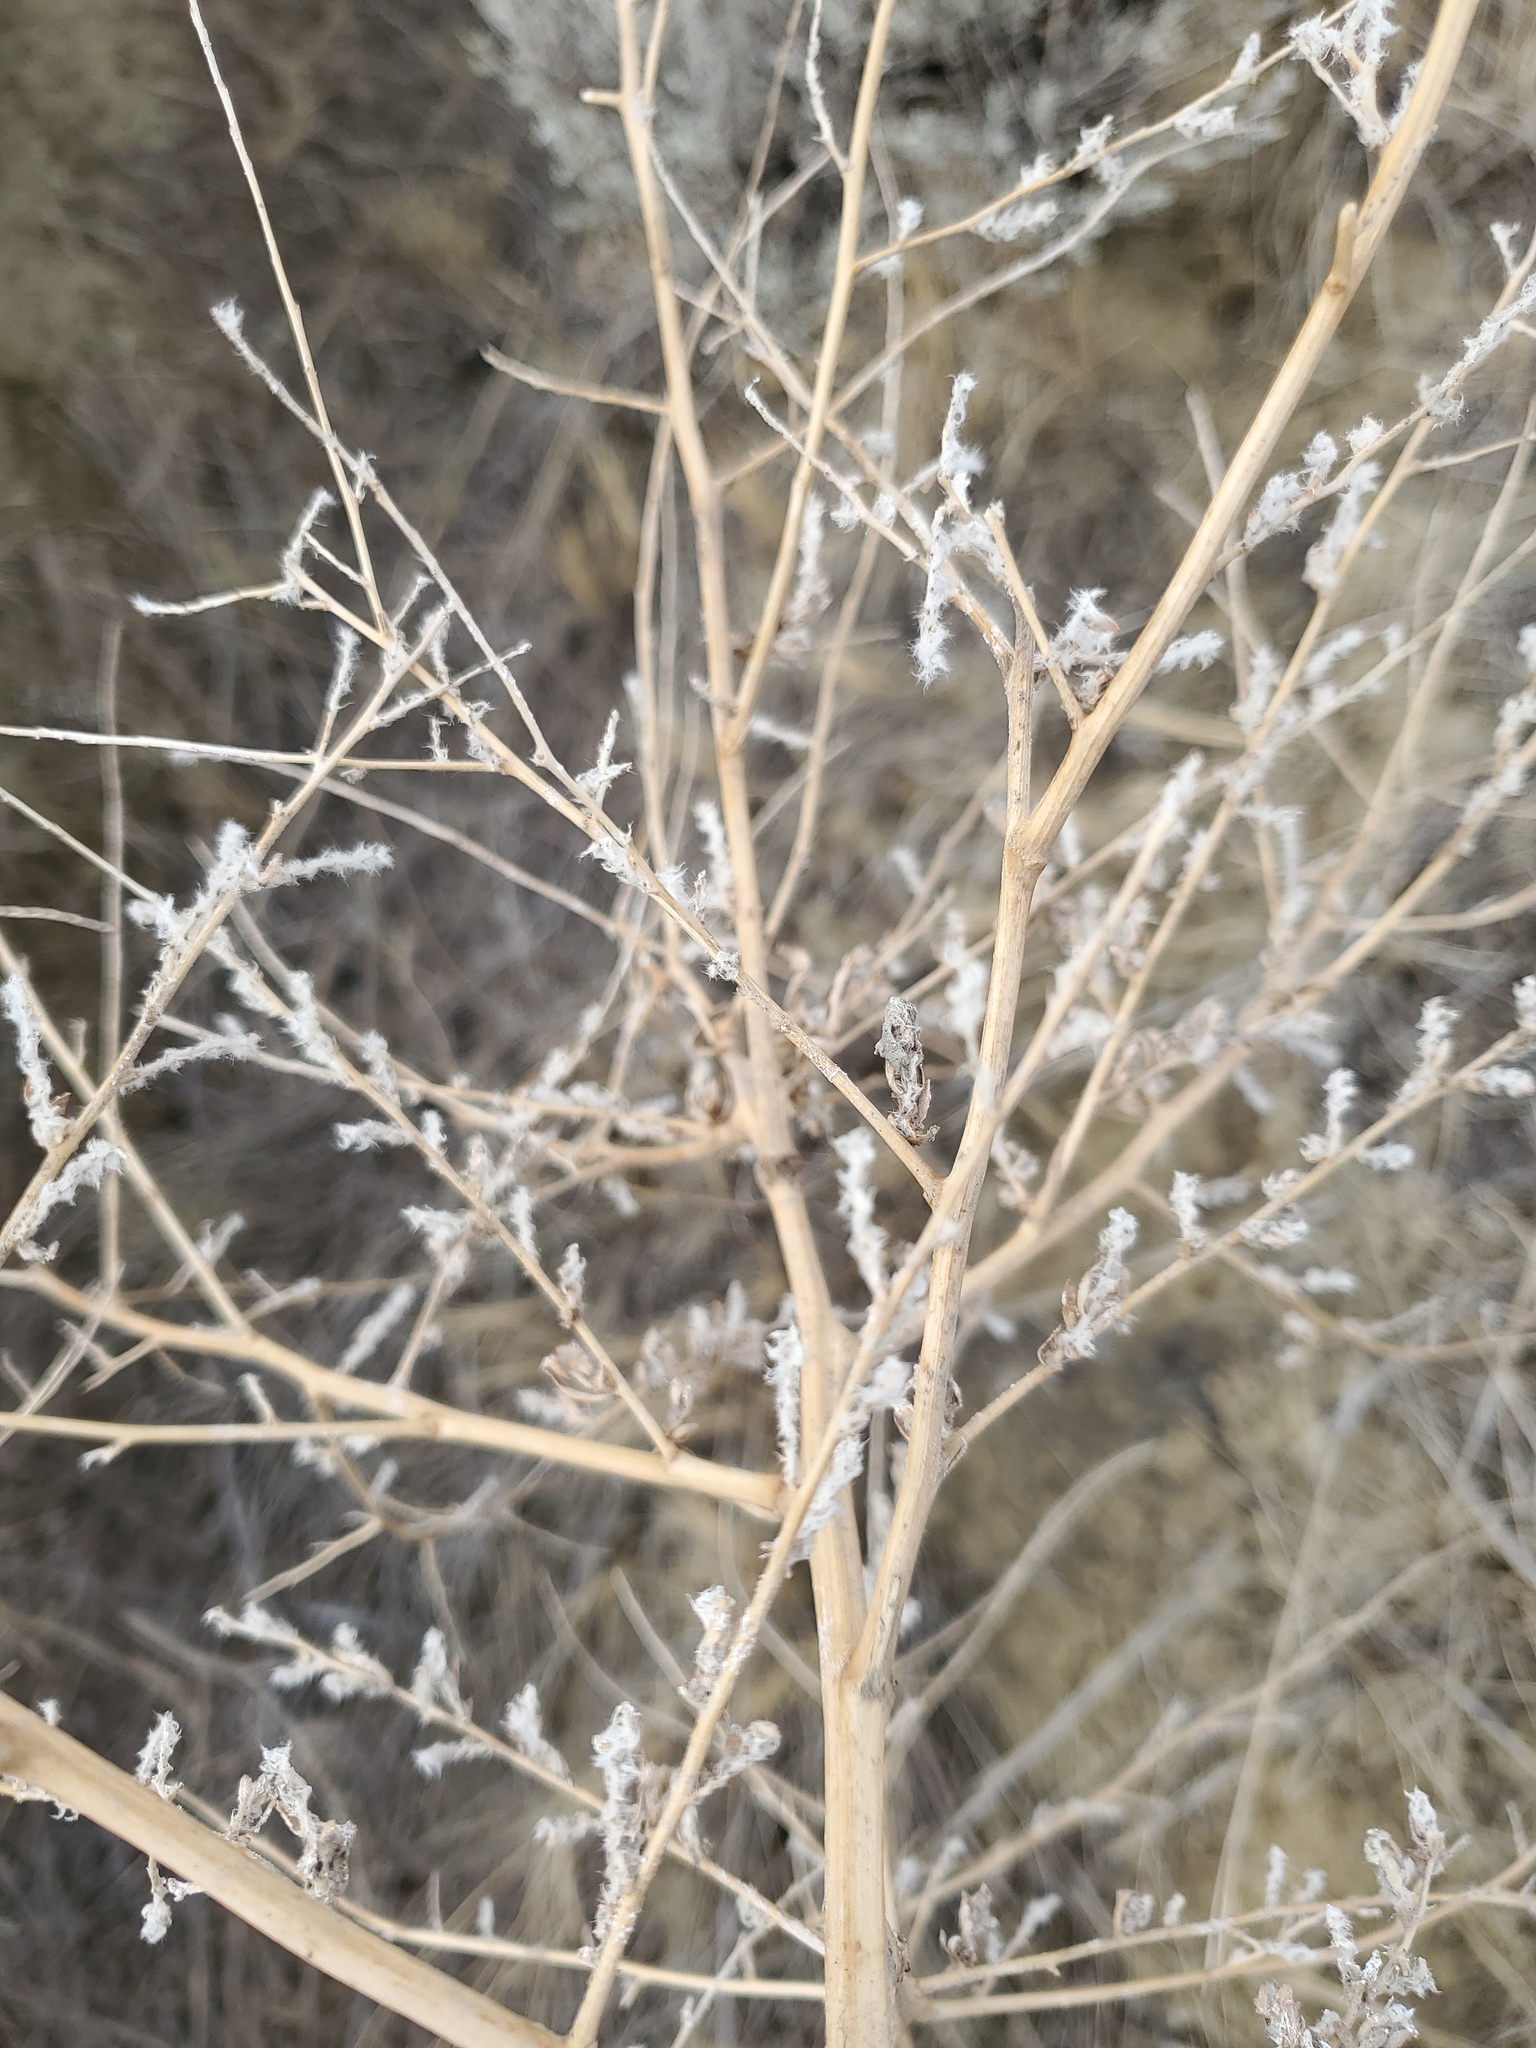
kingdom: Plantae
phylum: Tracheophyta
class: Magnoliopsida
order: Caryophyllales
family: Amaranthaceae
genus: Bassia
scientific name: Bassia scoparia
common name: Belvedere
